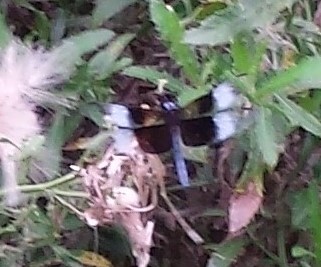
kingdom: Animalia
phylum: Arthropoda
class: Insecta
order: Odonata
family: Libellulidae
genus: Libellula
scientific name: Libellula luctuosa
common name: Widow skimmer
